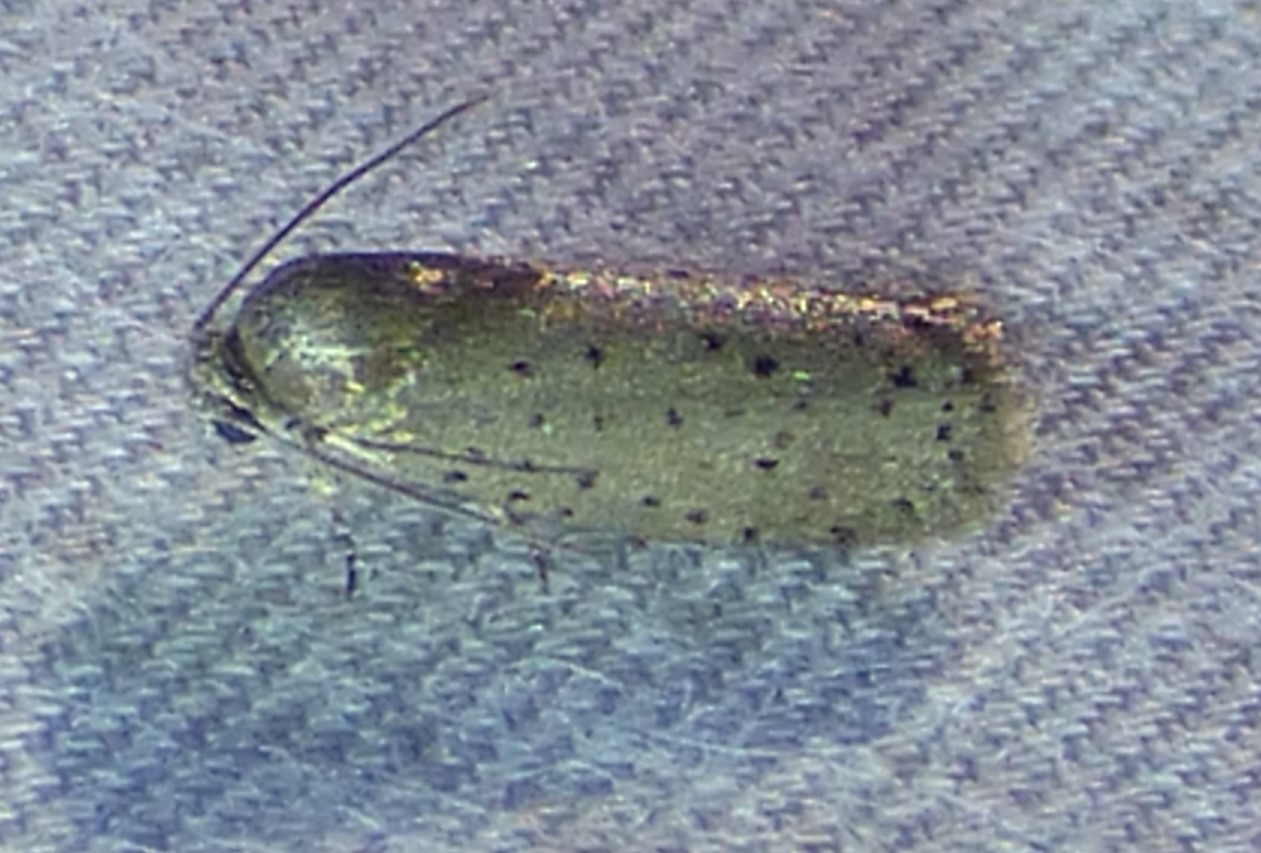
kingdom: Animalia
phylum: Arthropoda
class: Insecta
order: Lepidoptera
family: Galacticidae
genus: Homadaula
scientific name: Homadaula anisocentra
